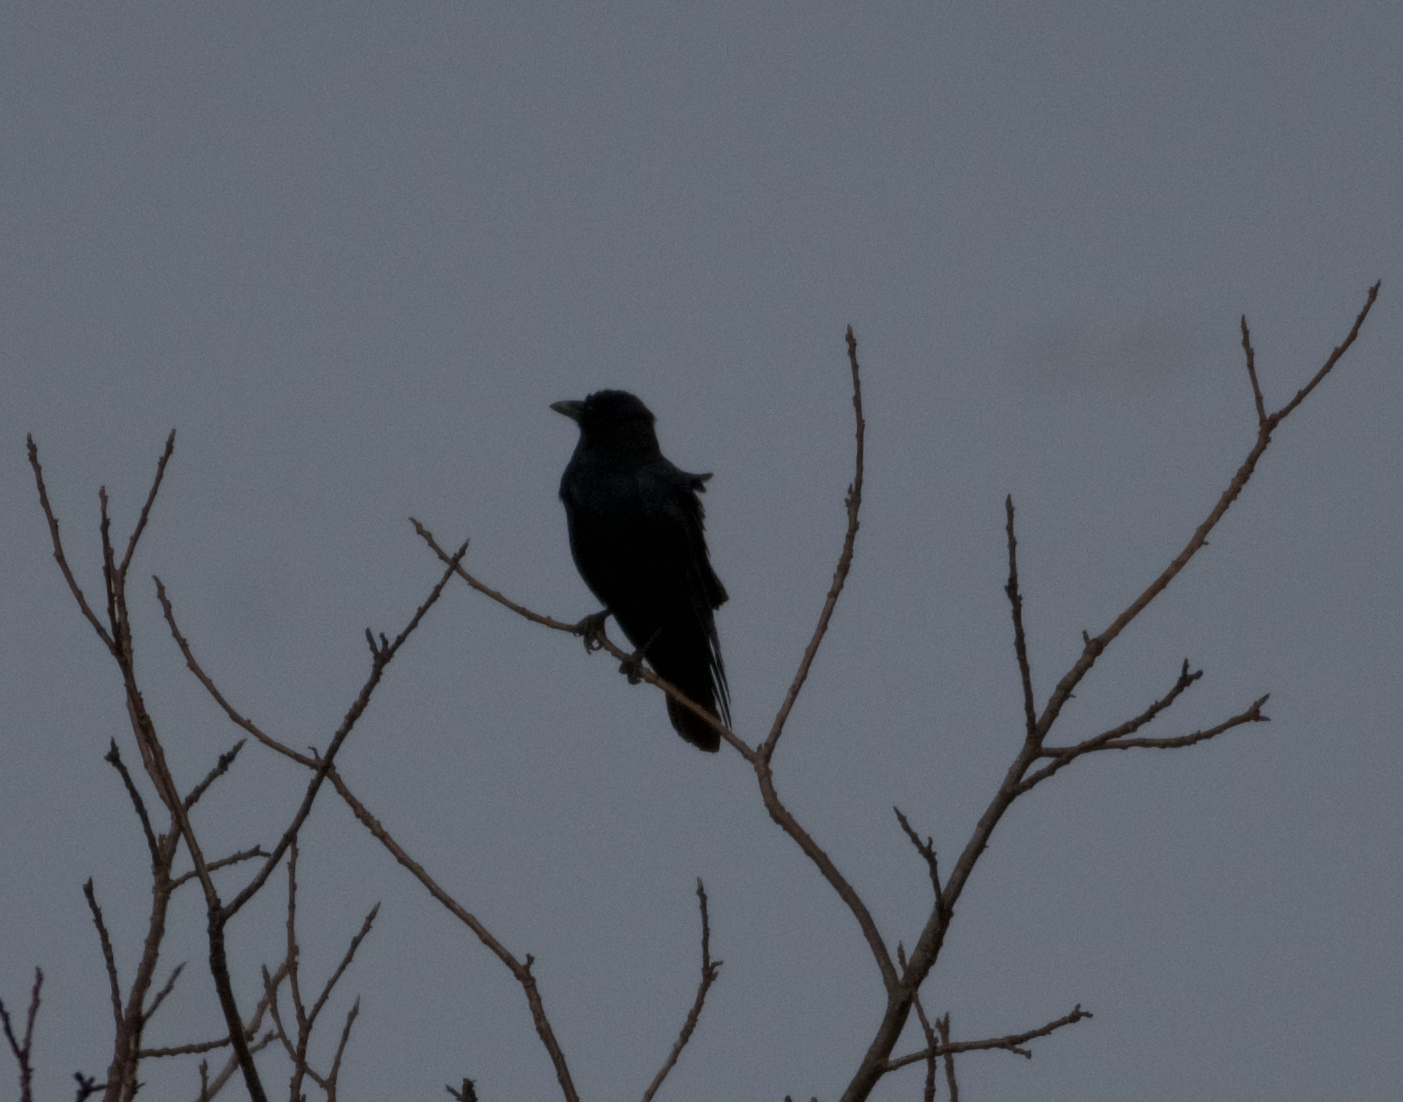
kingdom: Animalia
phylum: Chordata
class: Aves
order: Passeriformes
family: Corvidae
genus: Corvus
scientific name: Corvus brachyrhynchos
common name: American crow
